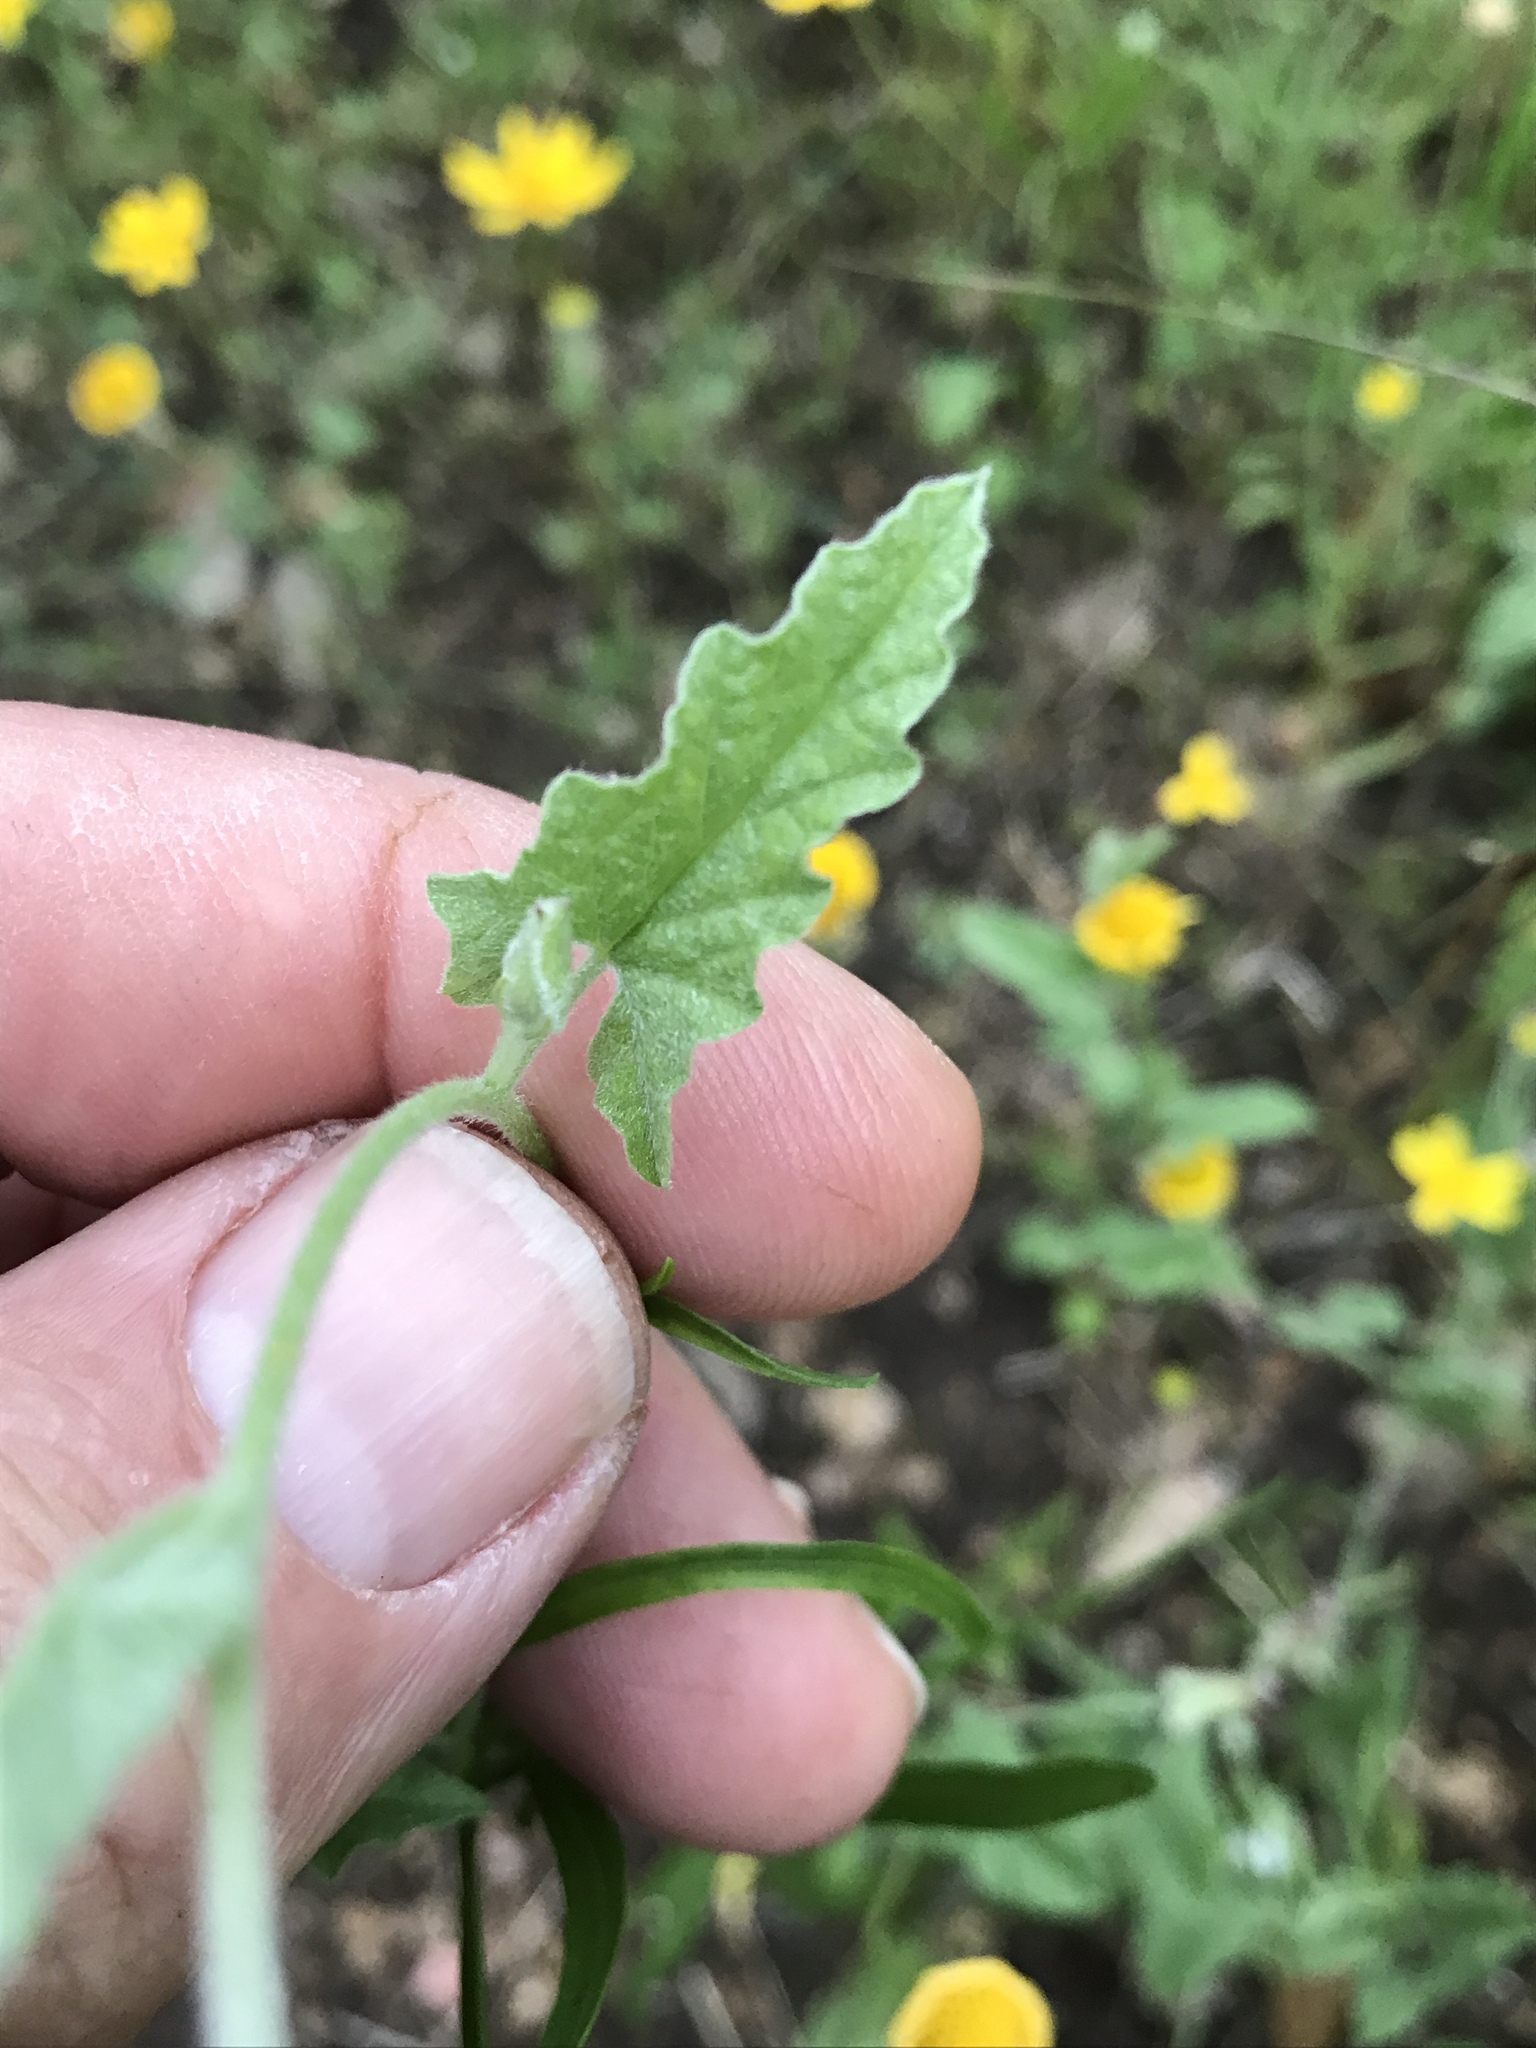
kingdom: Plantae
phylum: Tracheophyta
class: Magnoliopsida
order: Solanales
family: Convolvulaceae
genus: Convolvulus
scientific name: Convolvulus equitans
